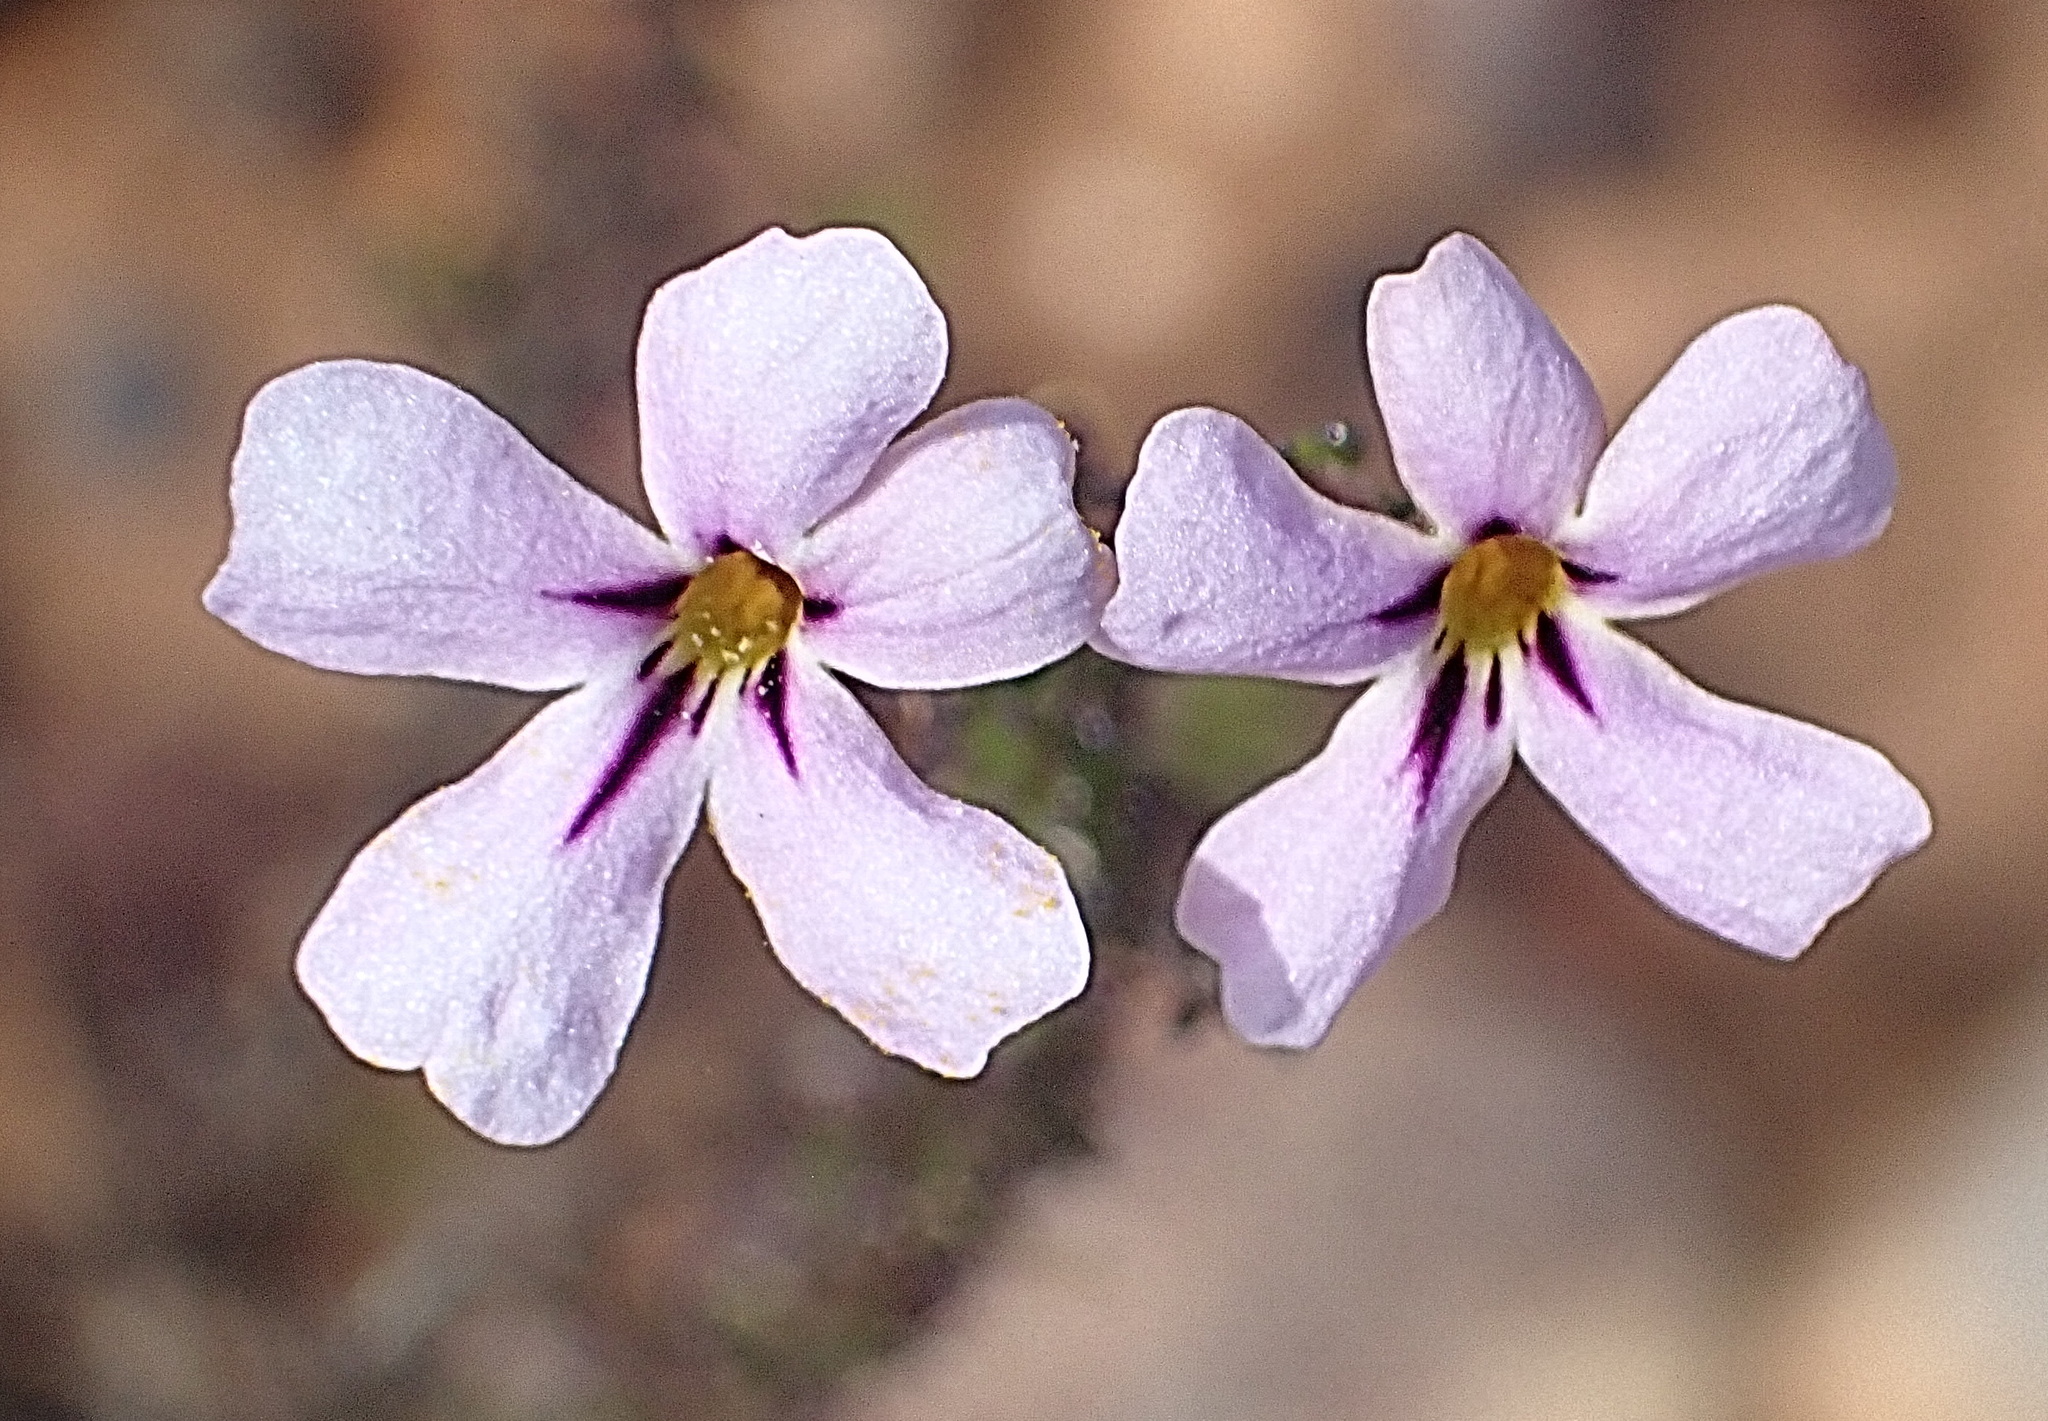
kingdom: Plantae
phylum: Tracheophyta
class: Magnoliopsida
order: Lamiales
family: Scrophulariaceae
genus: Jamesbrittenia
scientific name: Jamesbrittenia tortuosa
